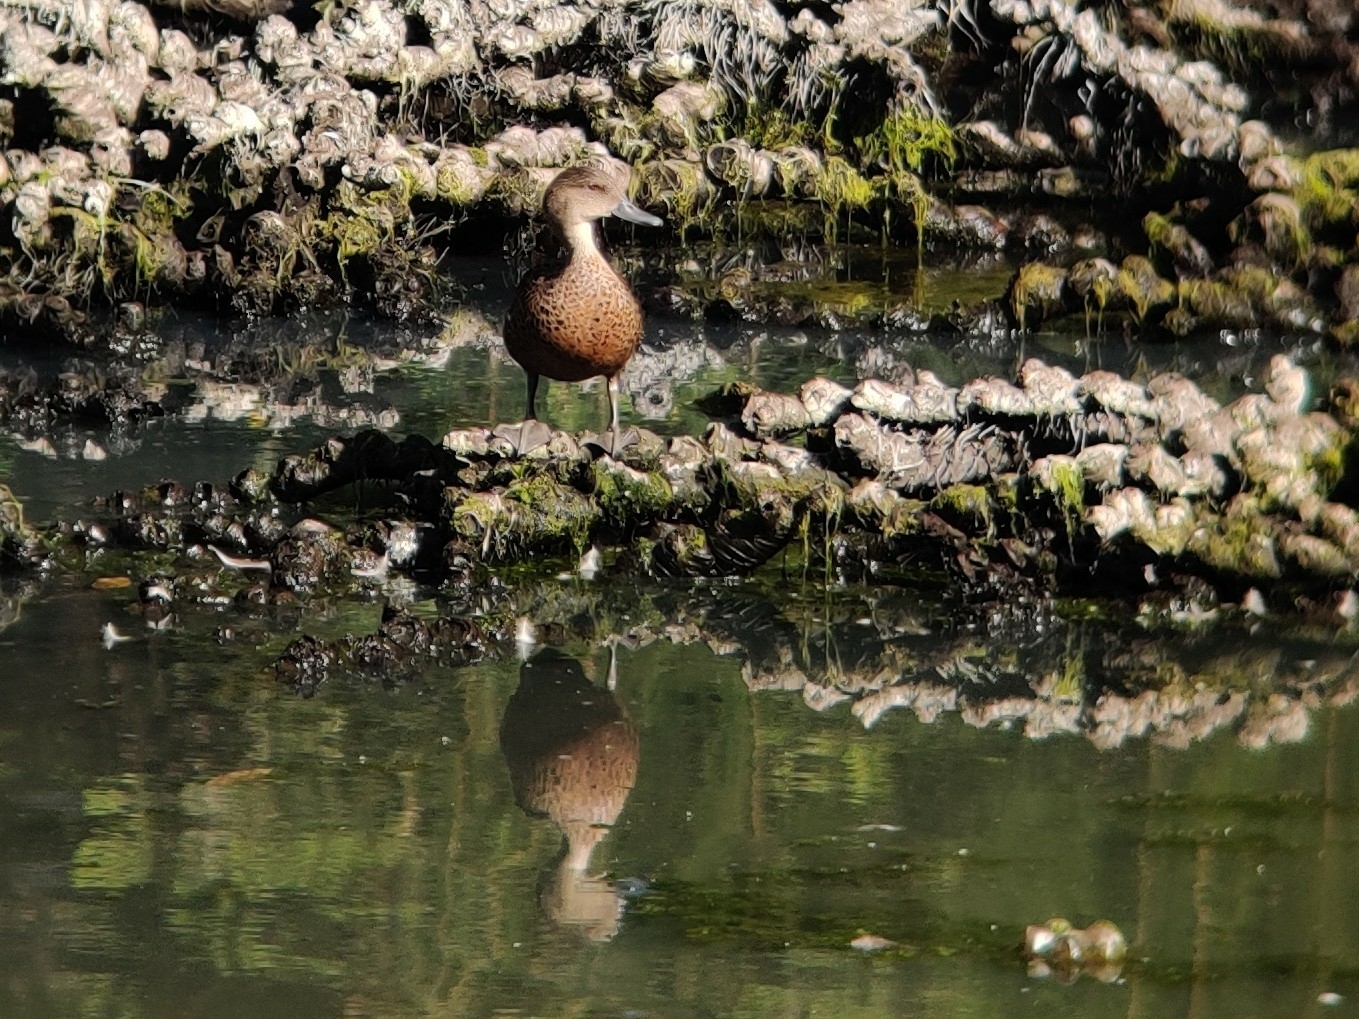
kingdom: Animalia
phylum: Chordata
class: Aves
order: Anseriformes
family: Anatidae
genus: Anas
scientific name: Anas castanea
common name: Chestnut teal
